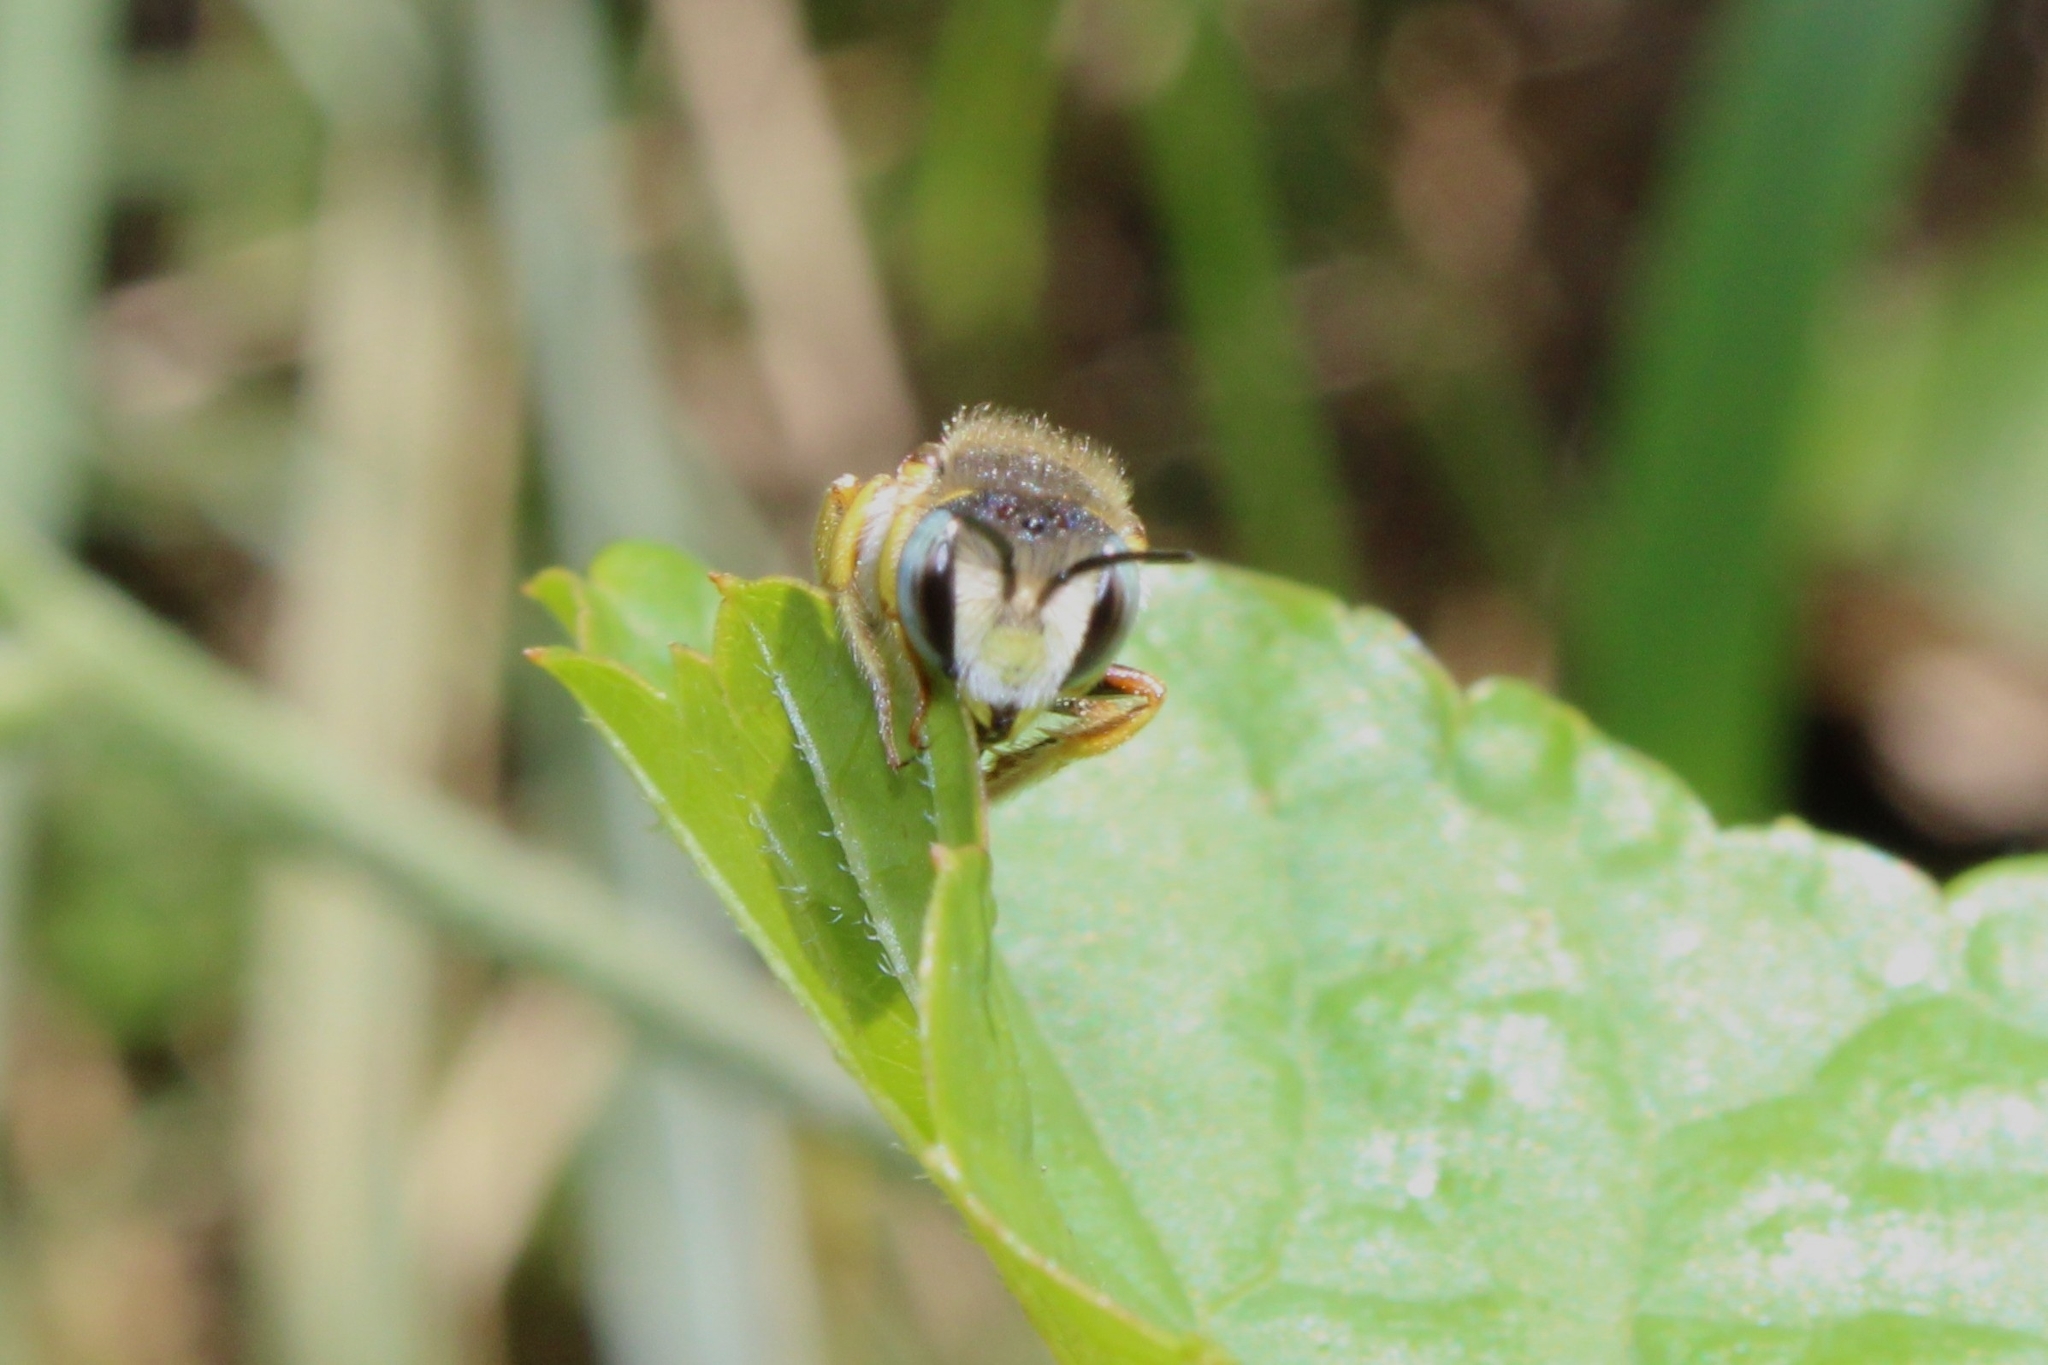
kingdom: Animalia
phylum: Arthropoda
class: Insecta
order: Hymenoptera
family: Megachilidae
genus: Anthidium
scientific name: Anthidium oblongatum
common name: Oblong wool carder bee
